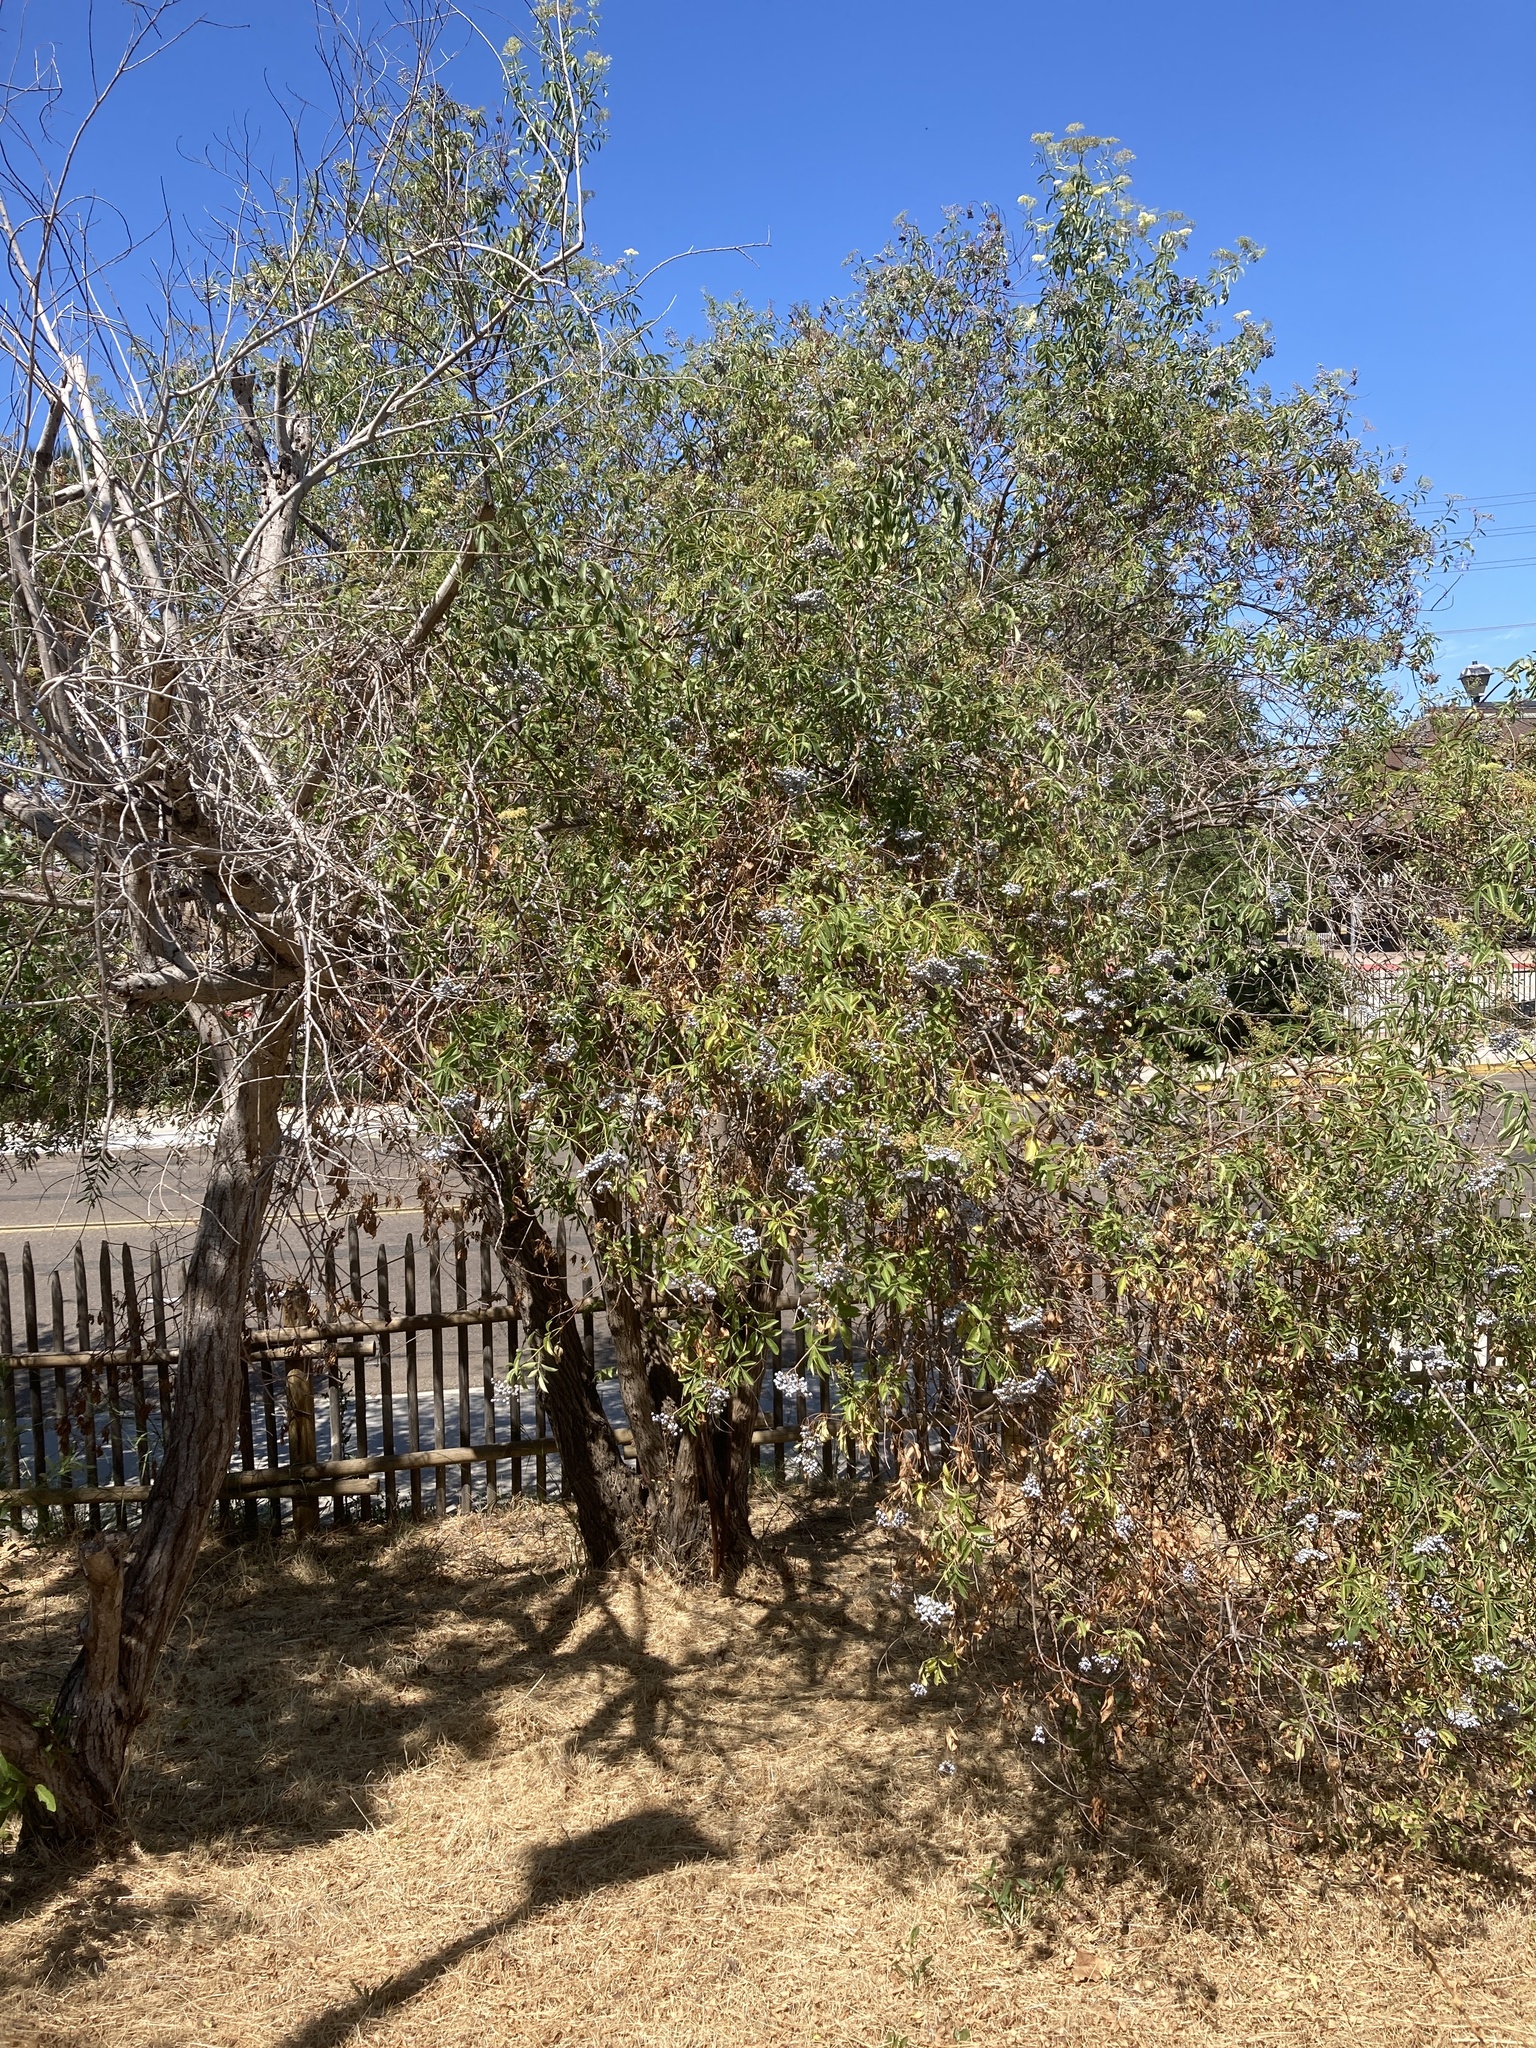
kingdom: Plantae
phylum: Tracheophyta
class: Magnoliopsida
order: Dipsacales
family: Viburnaceae
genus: Sambucus
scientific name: Sambucus cerulea
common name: Blue elder
